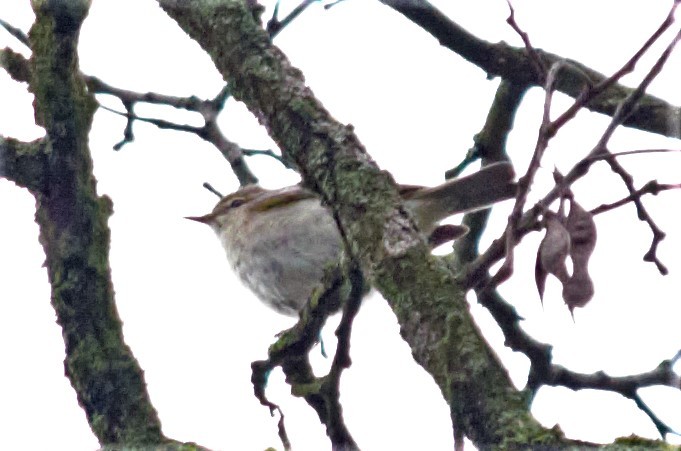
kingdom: Animalia
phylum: Chordata
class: Aves
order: Passeriformes
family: Phylloscopidae
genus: Phylloscopus
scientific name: Phylloscopus collybita
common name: Common chiffchaff
